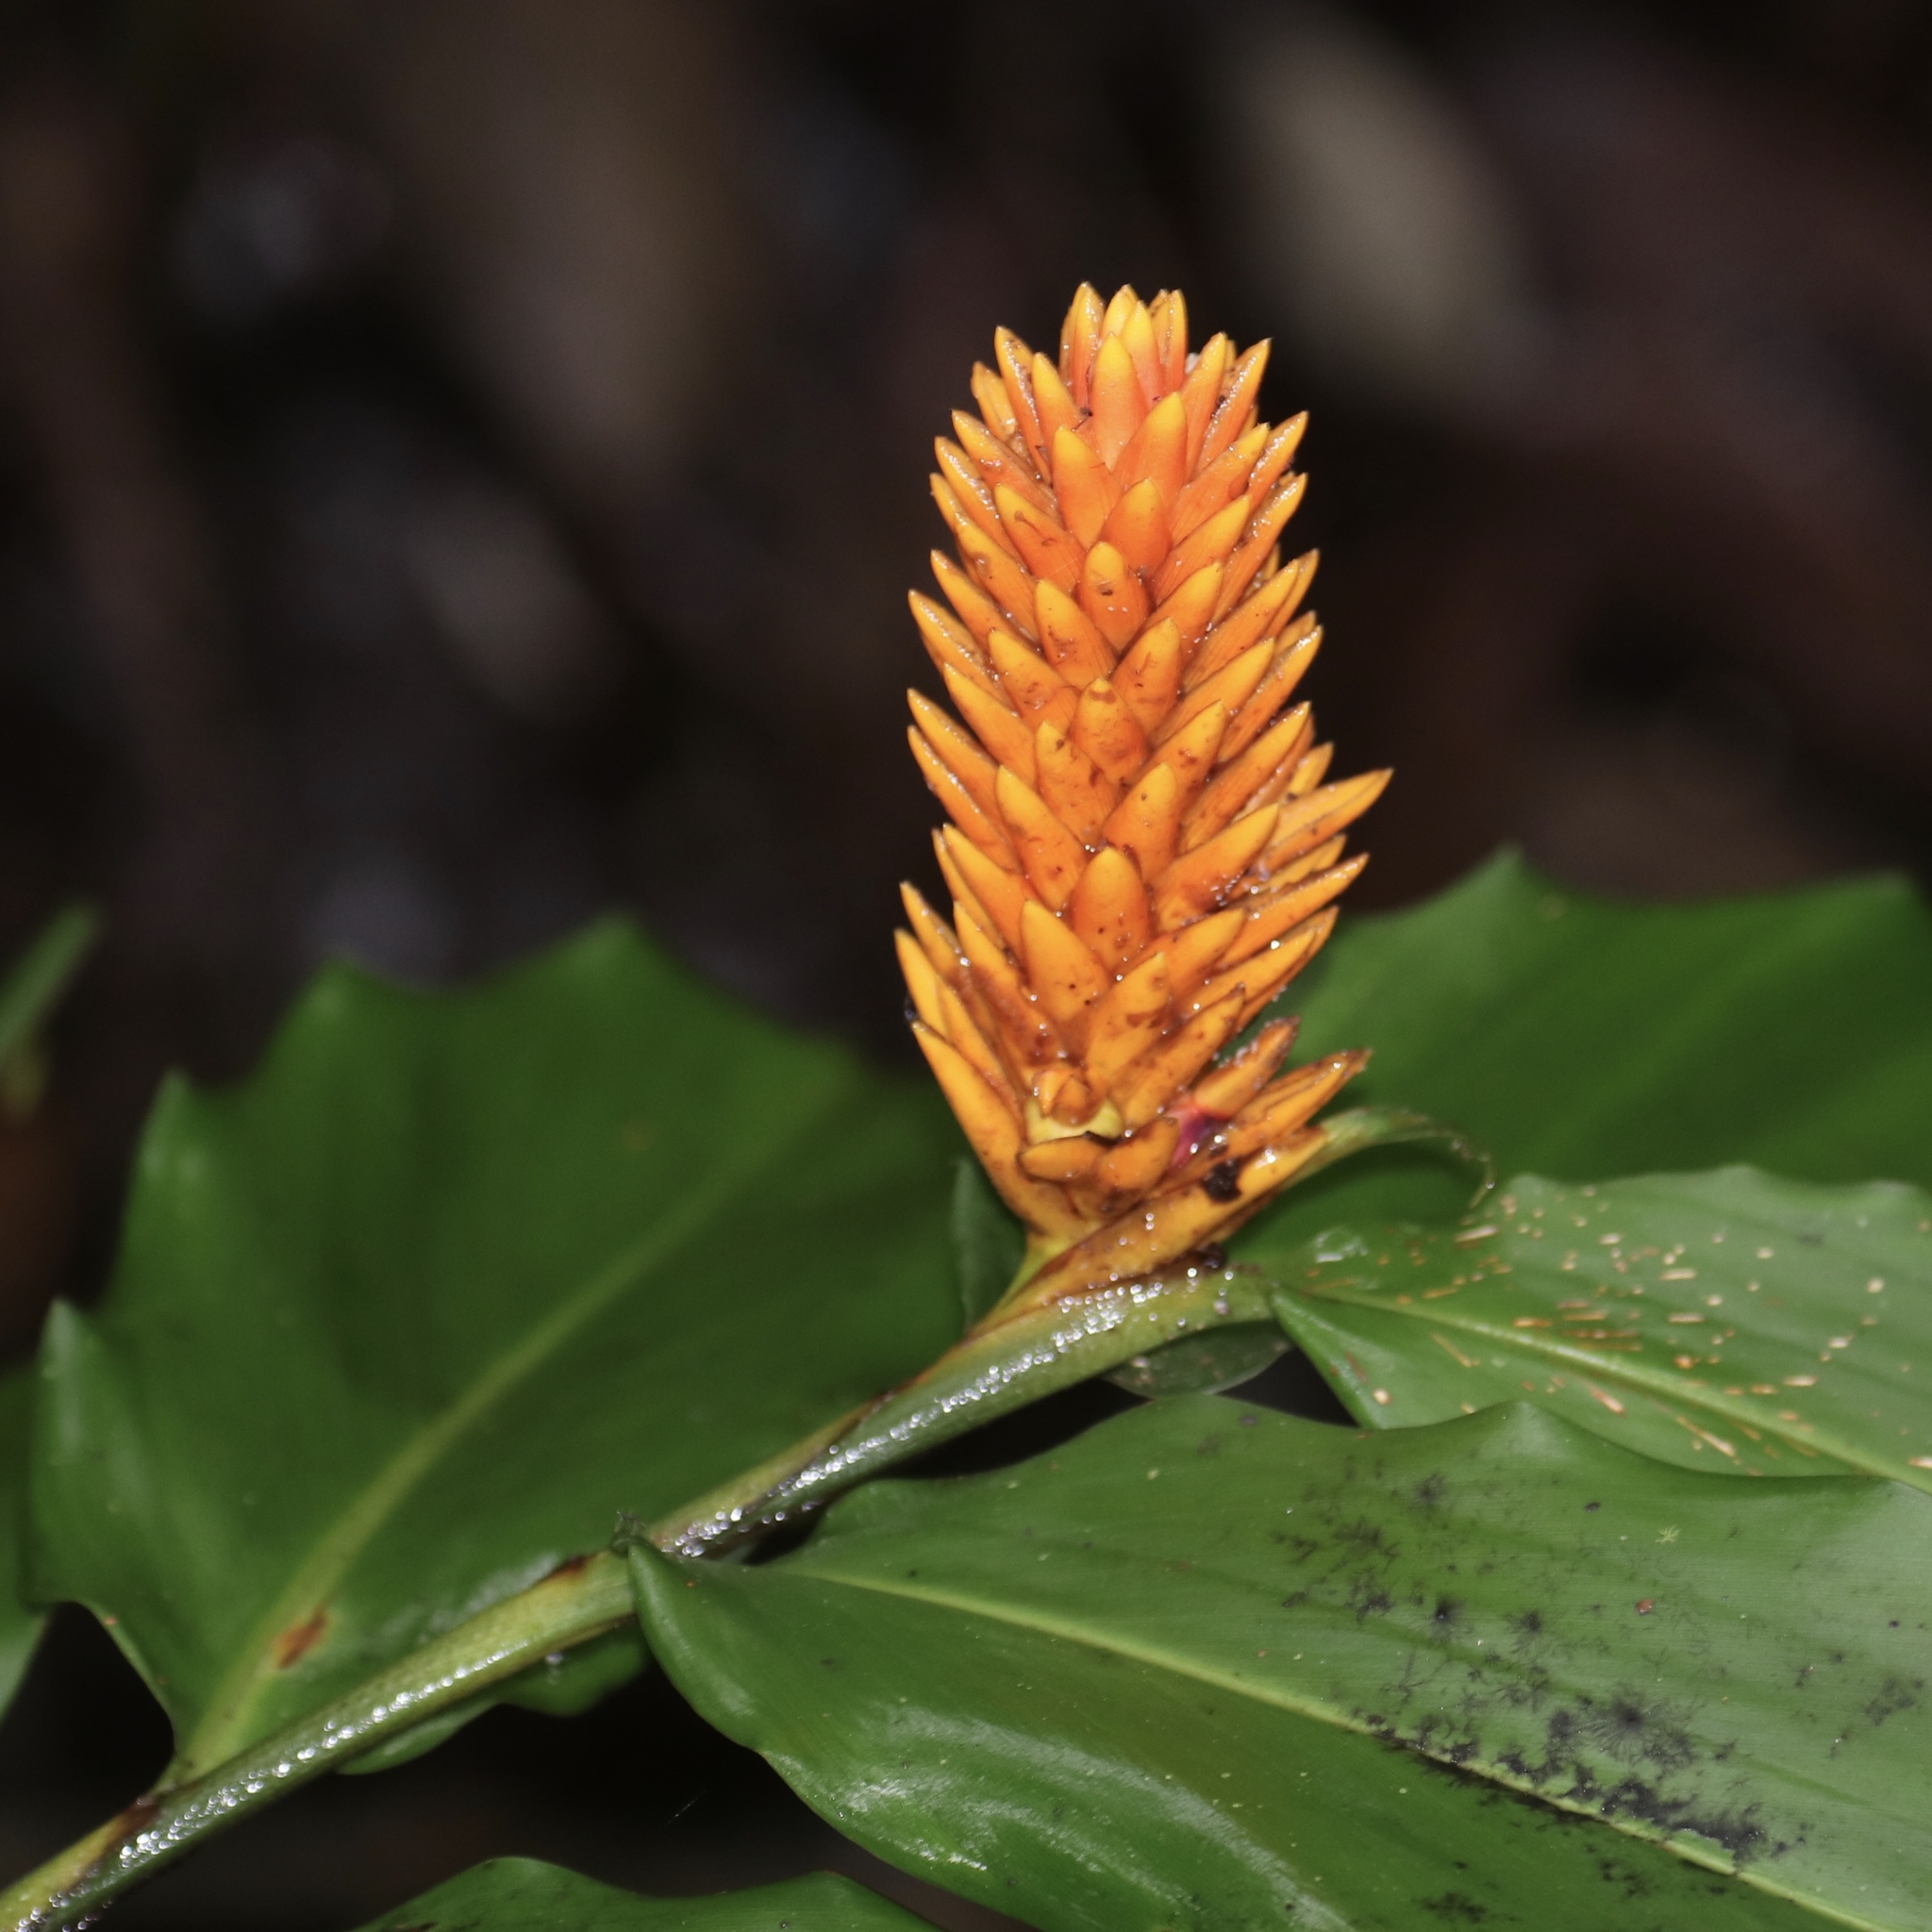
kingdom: Plantae
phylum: Tracheophyta
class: Liliopsida
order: Zingiberales
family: Zingiberaceae
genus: Renealmia
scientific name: Renealmia cernua
